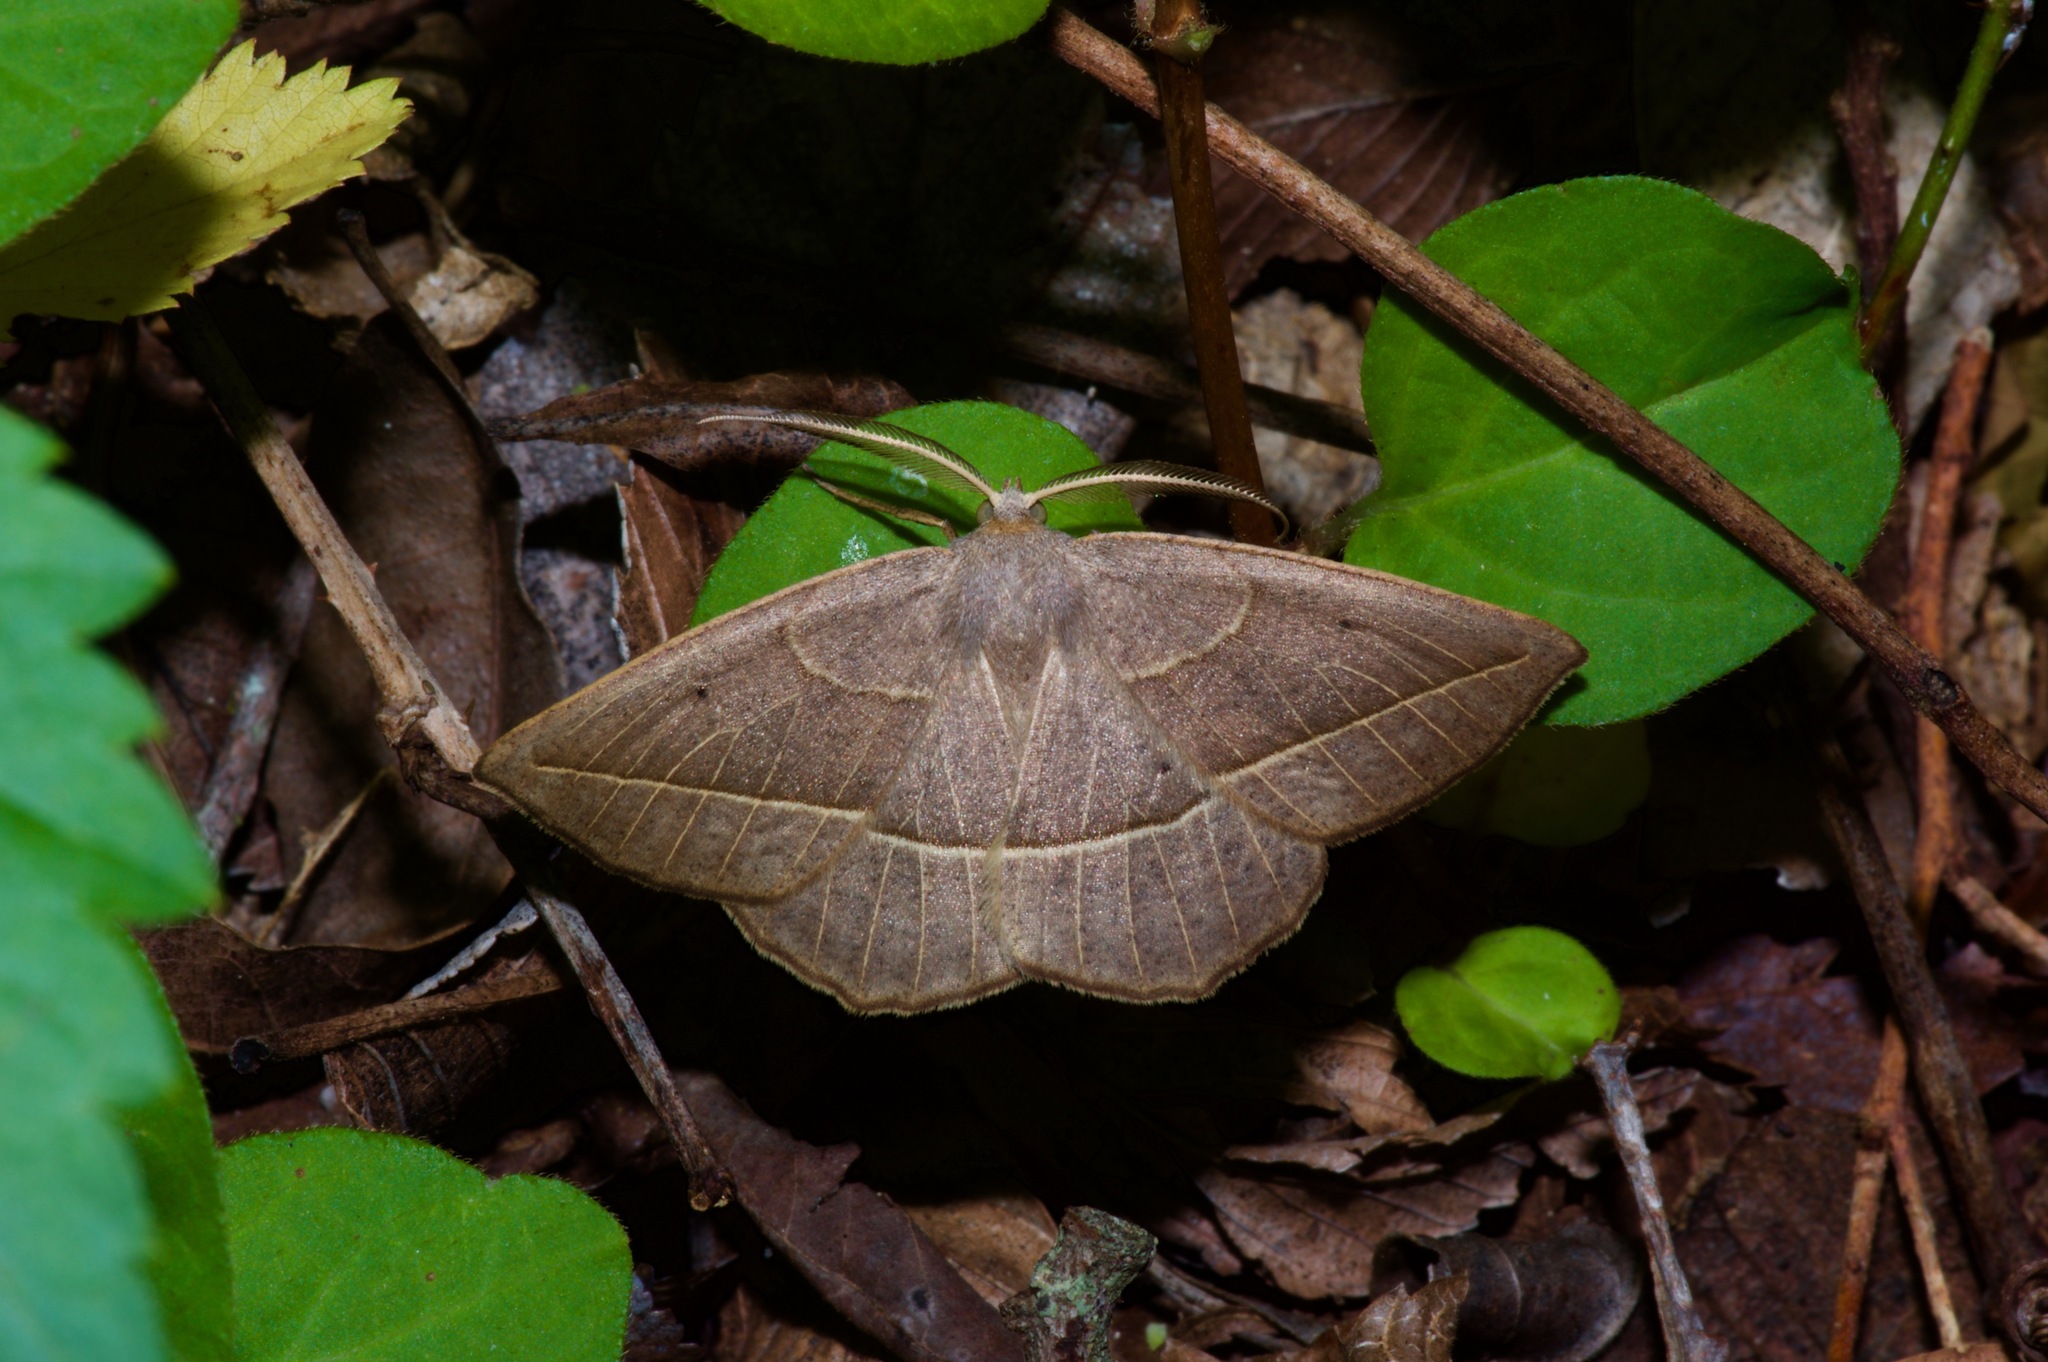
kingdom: Animalia
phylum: Arthropoda
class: Insecta
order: Lepidoptera
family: Geometridae
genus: Eusarca
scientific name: Eusarca confusaria
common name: Confused eusarca
